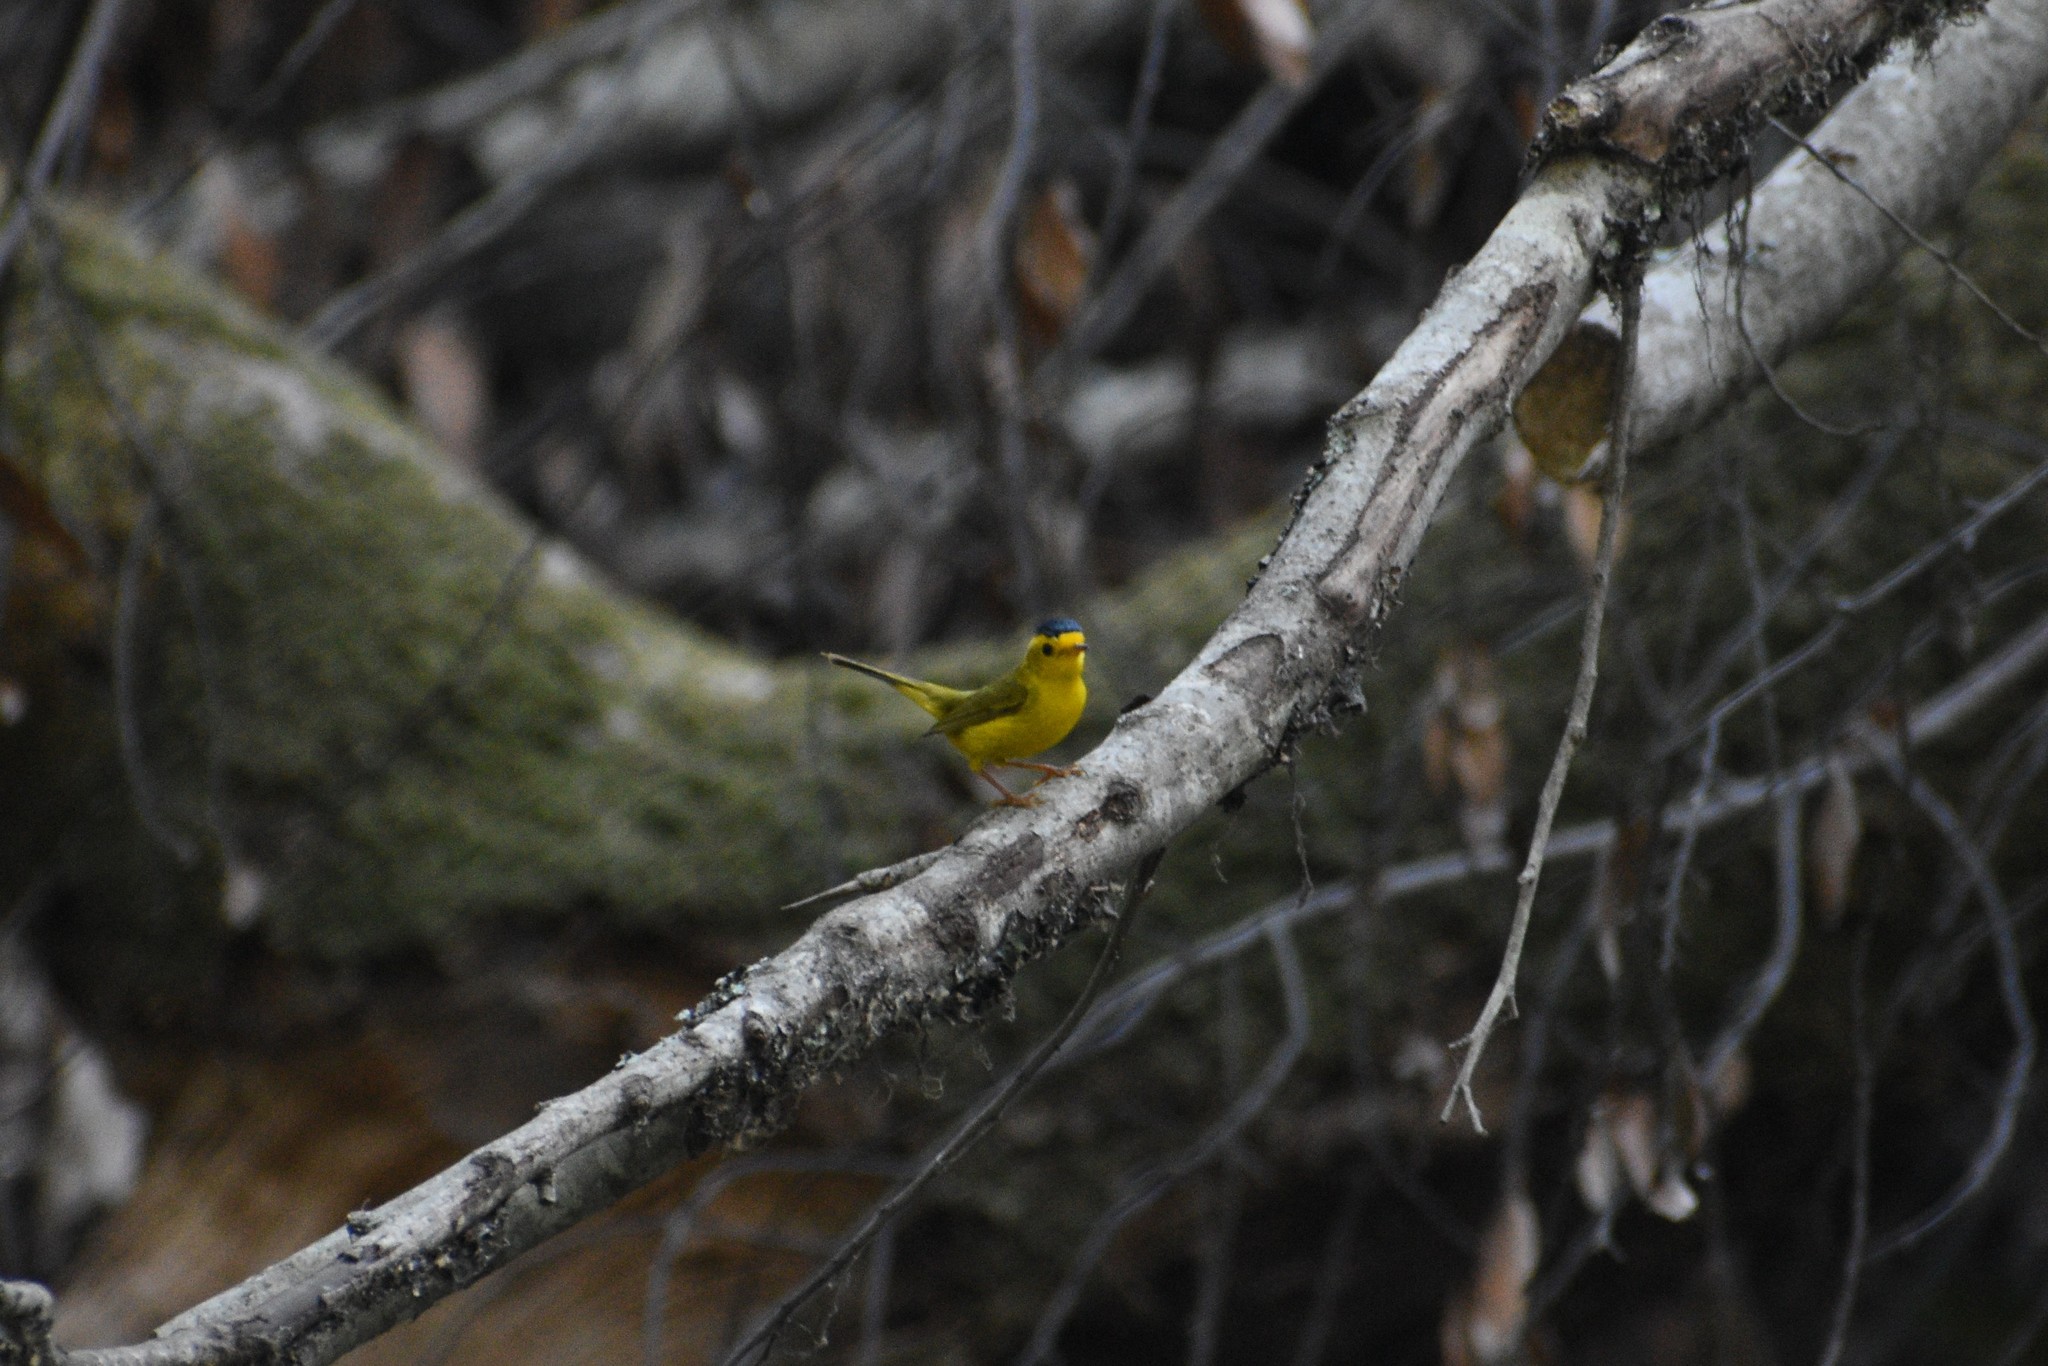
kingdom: Animalia
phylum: Chordata
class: Aves
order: Passeriformes
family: Parulidae
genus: Cardellina
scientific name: Cardellina pusilla
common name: Wilson's warbler
